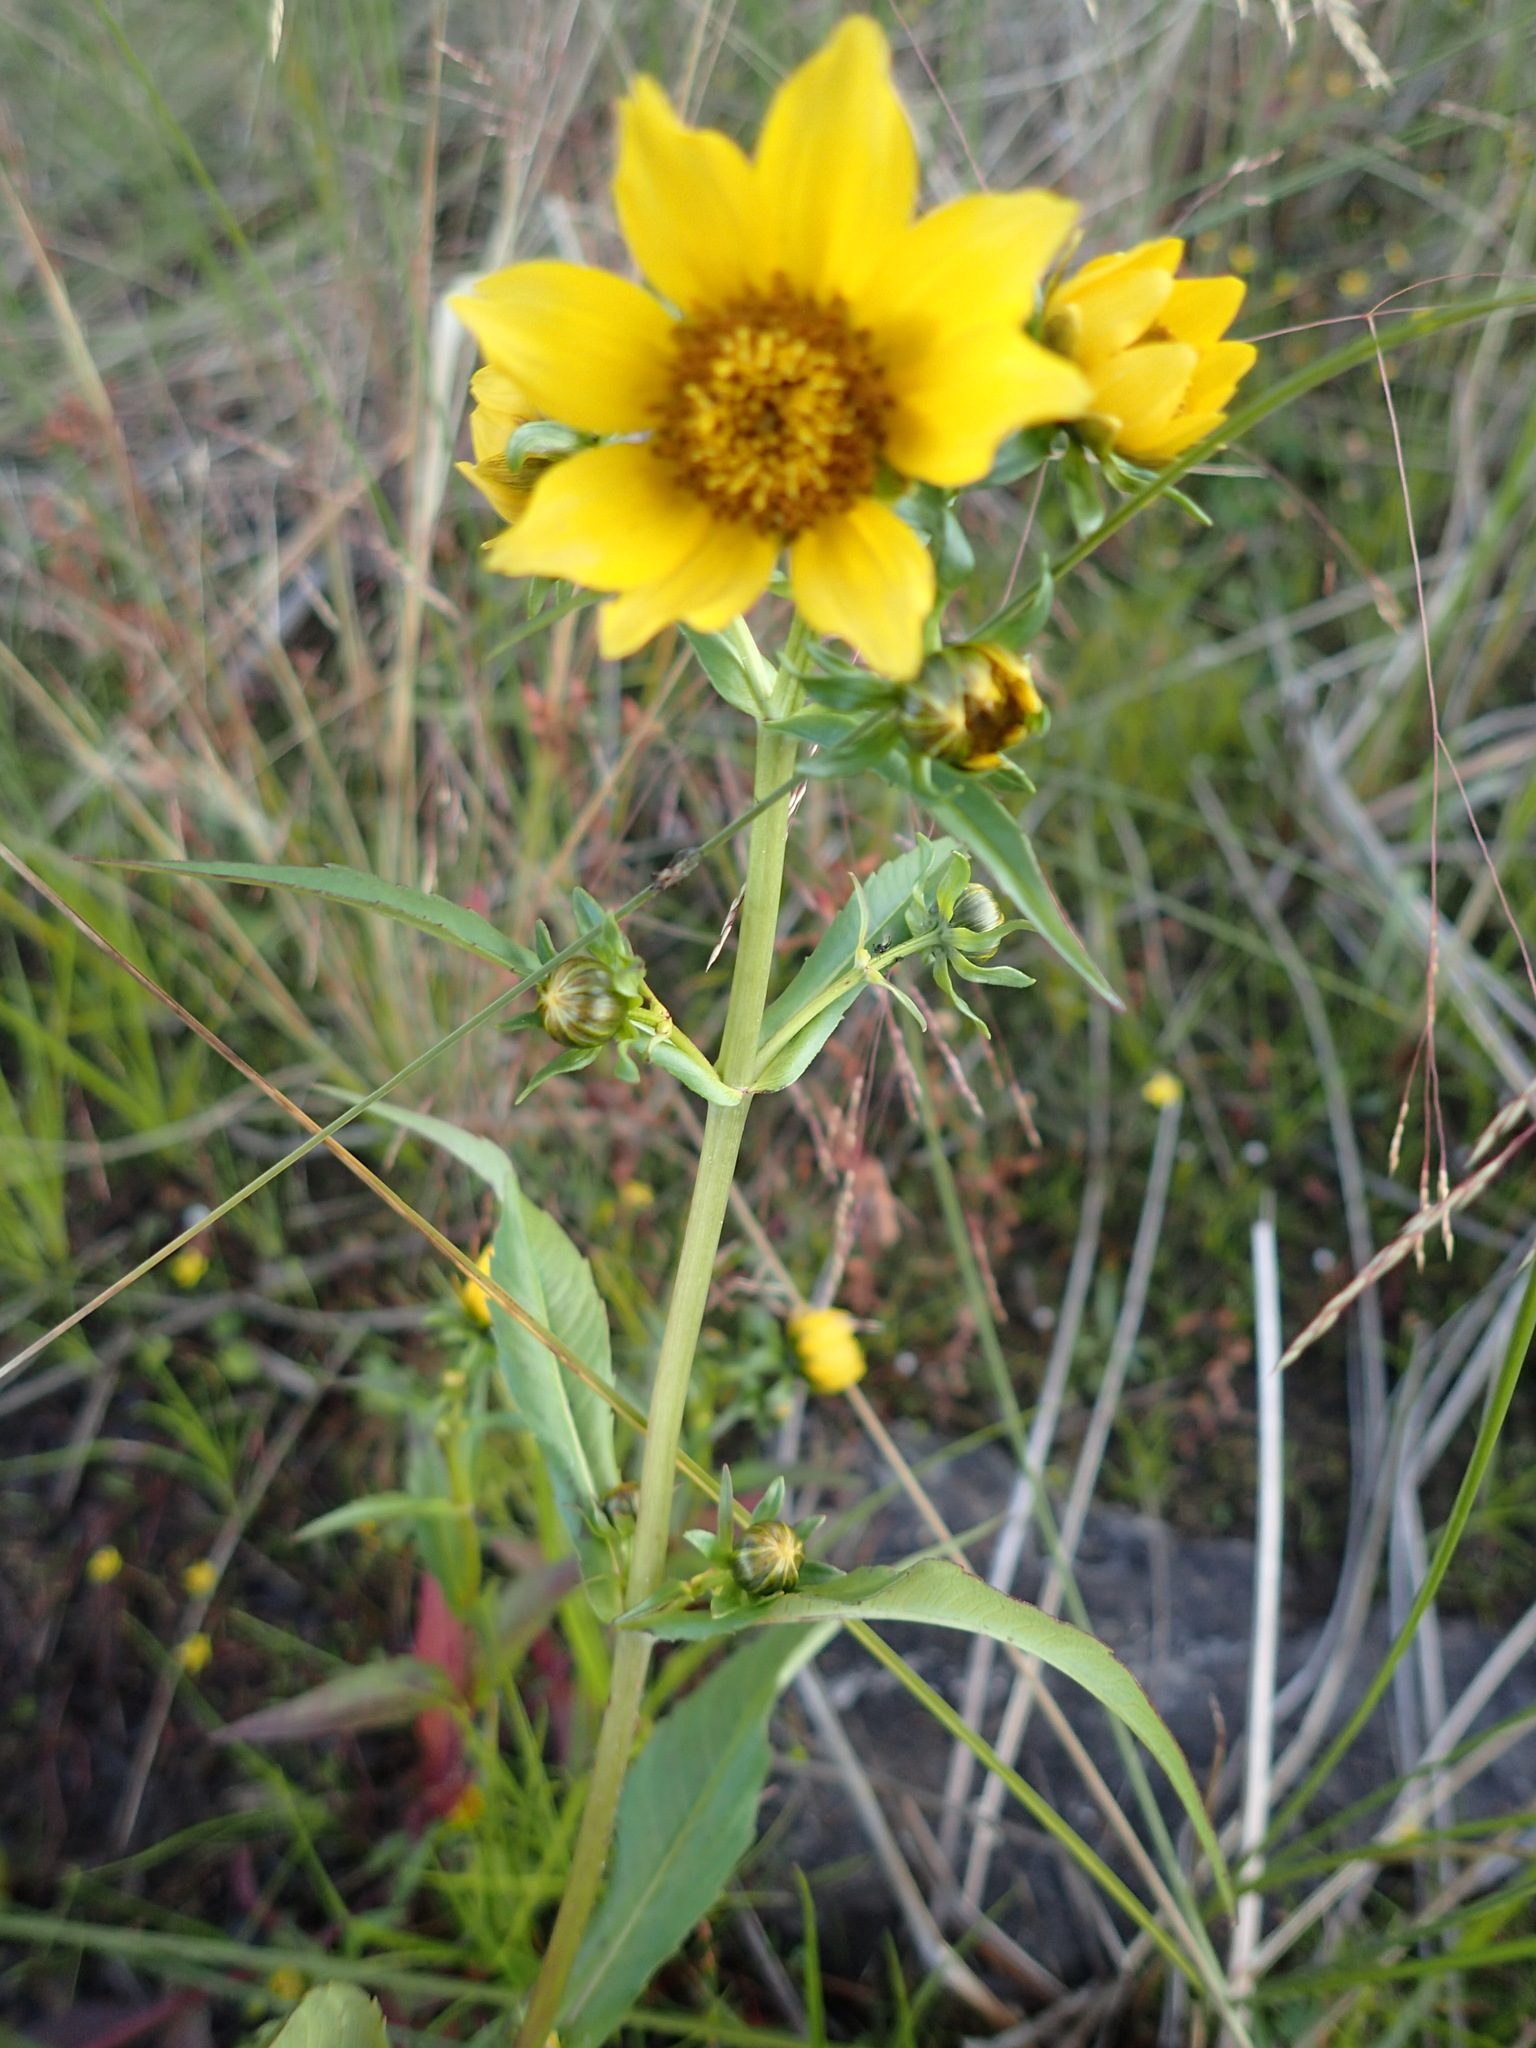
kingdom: Plantae
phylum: Tracheophyta
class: Magnoliopsida
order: Asterales
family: Asteraceae
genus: Bidens
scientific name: Bidens cernua
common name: Nodding bur-marigold
